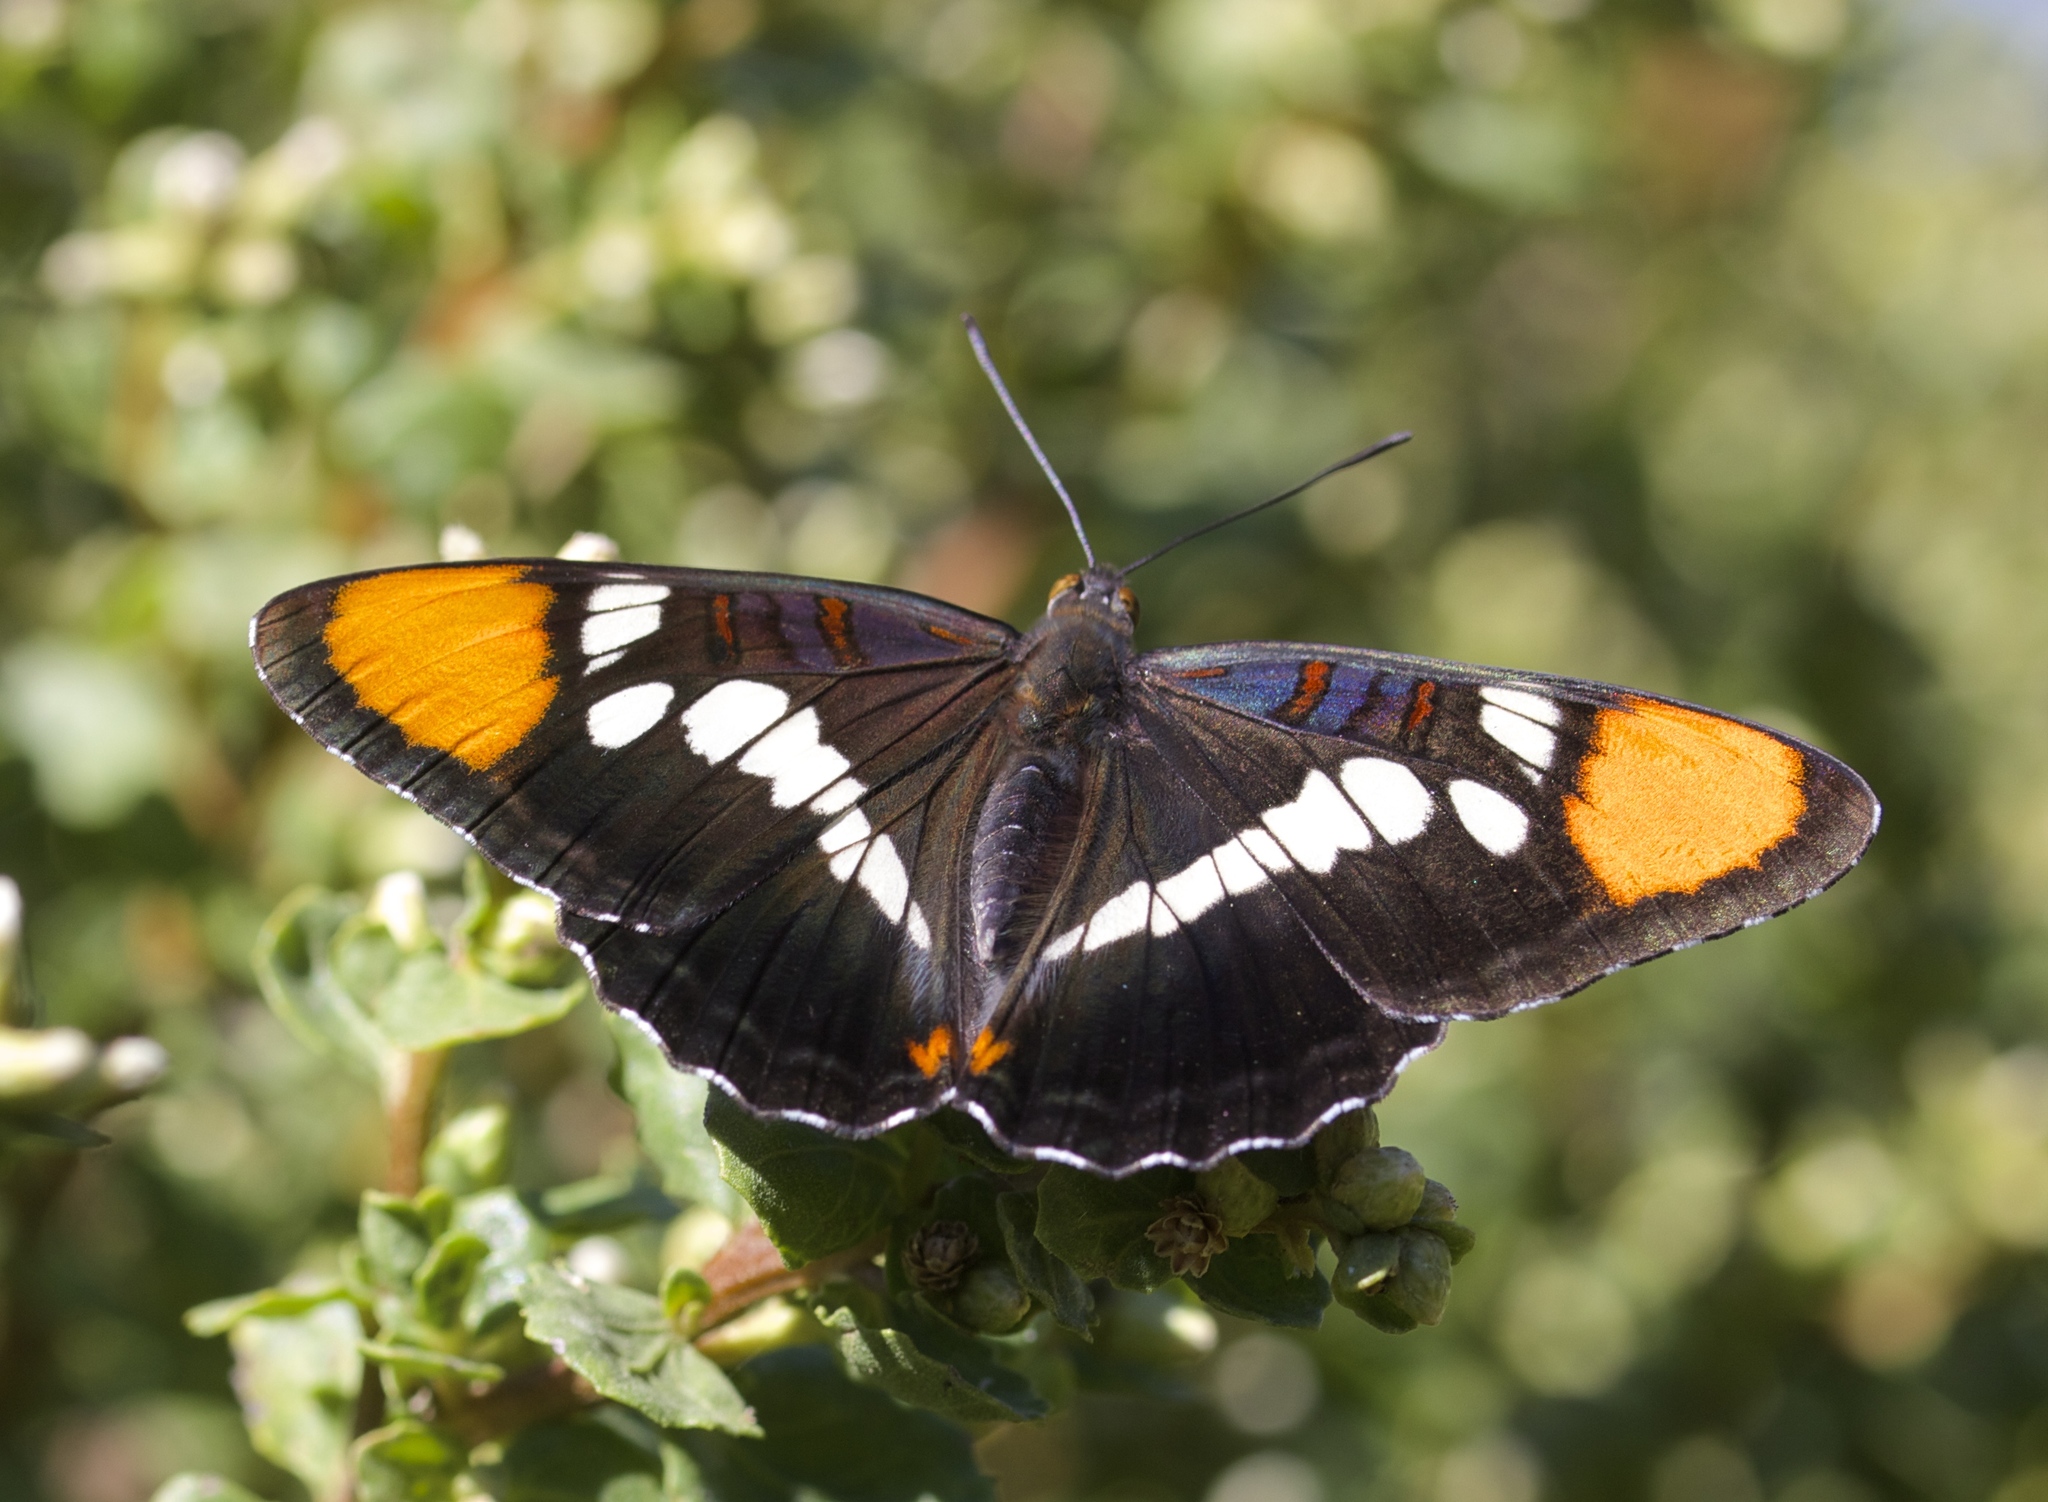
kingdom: Animalia
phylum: Arthropoda
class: Insecta
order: Lepidoptera
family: Nymphalidae
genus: Limenitis
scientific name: Limenitis bredowii
